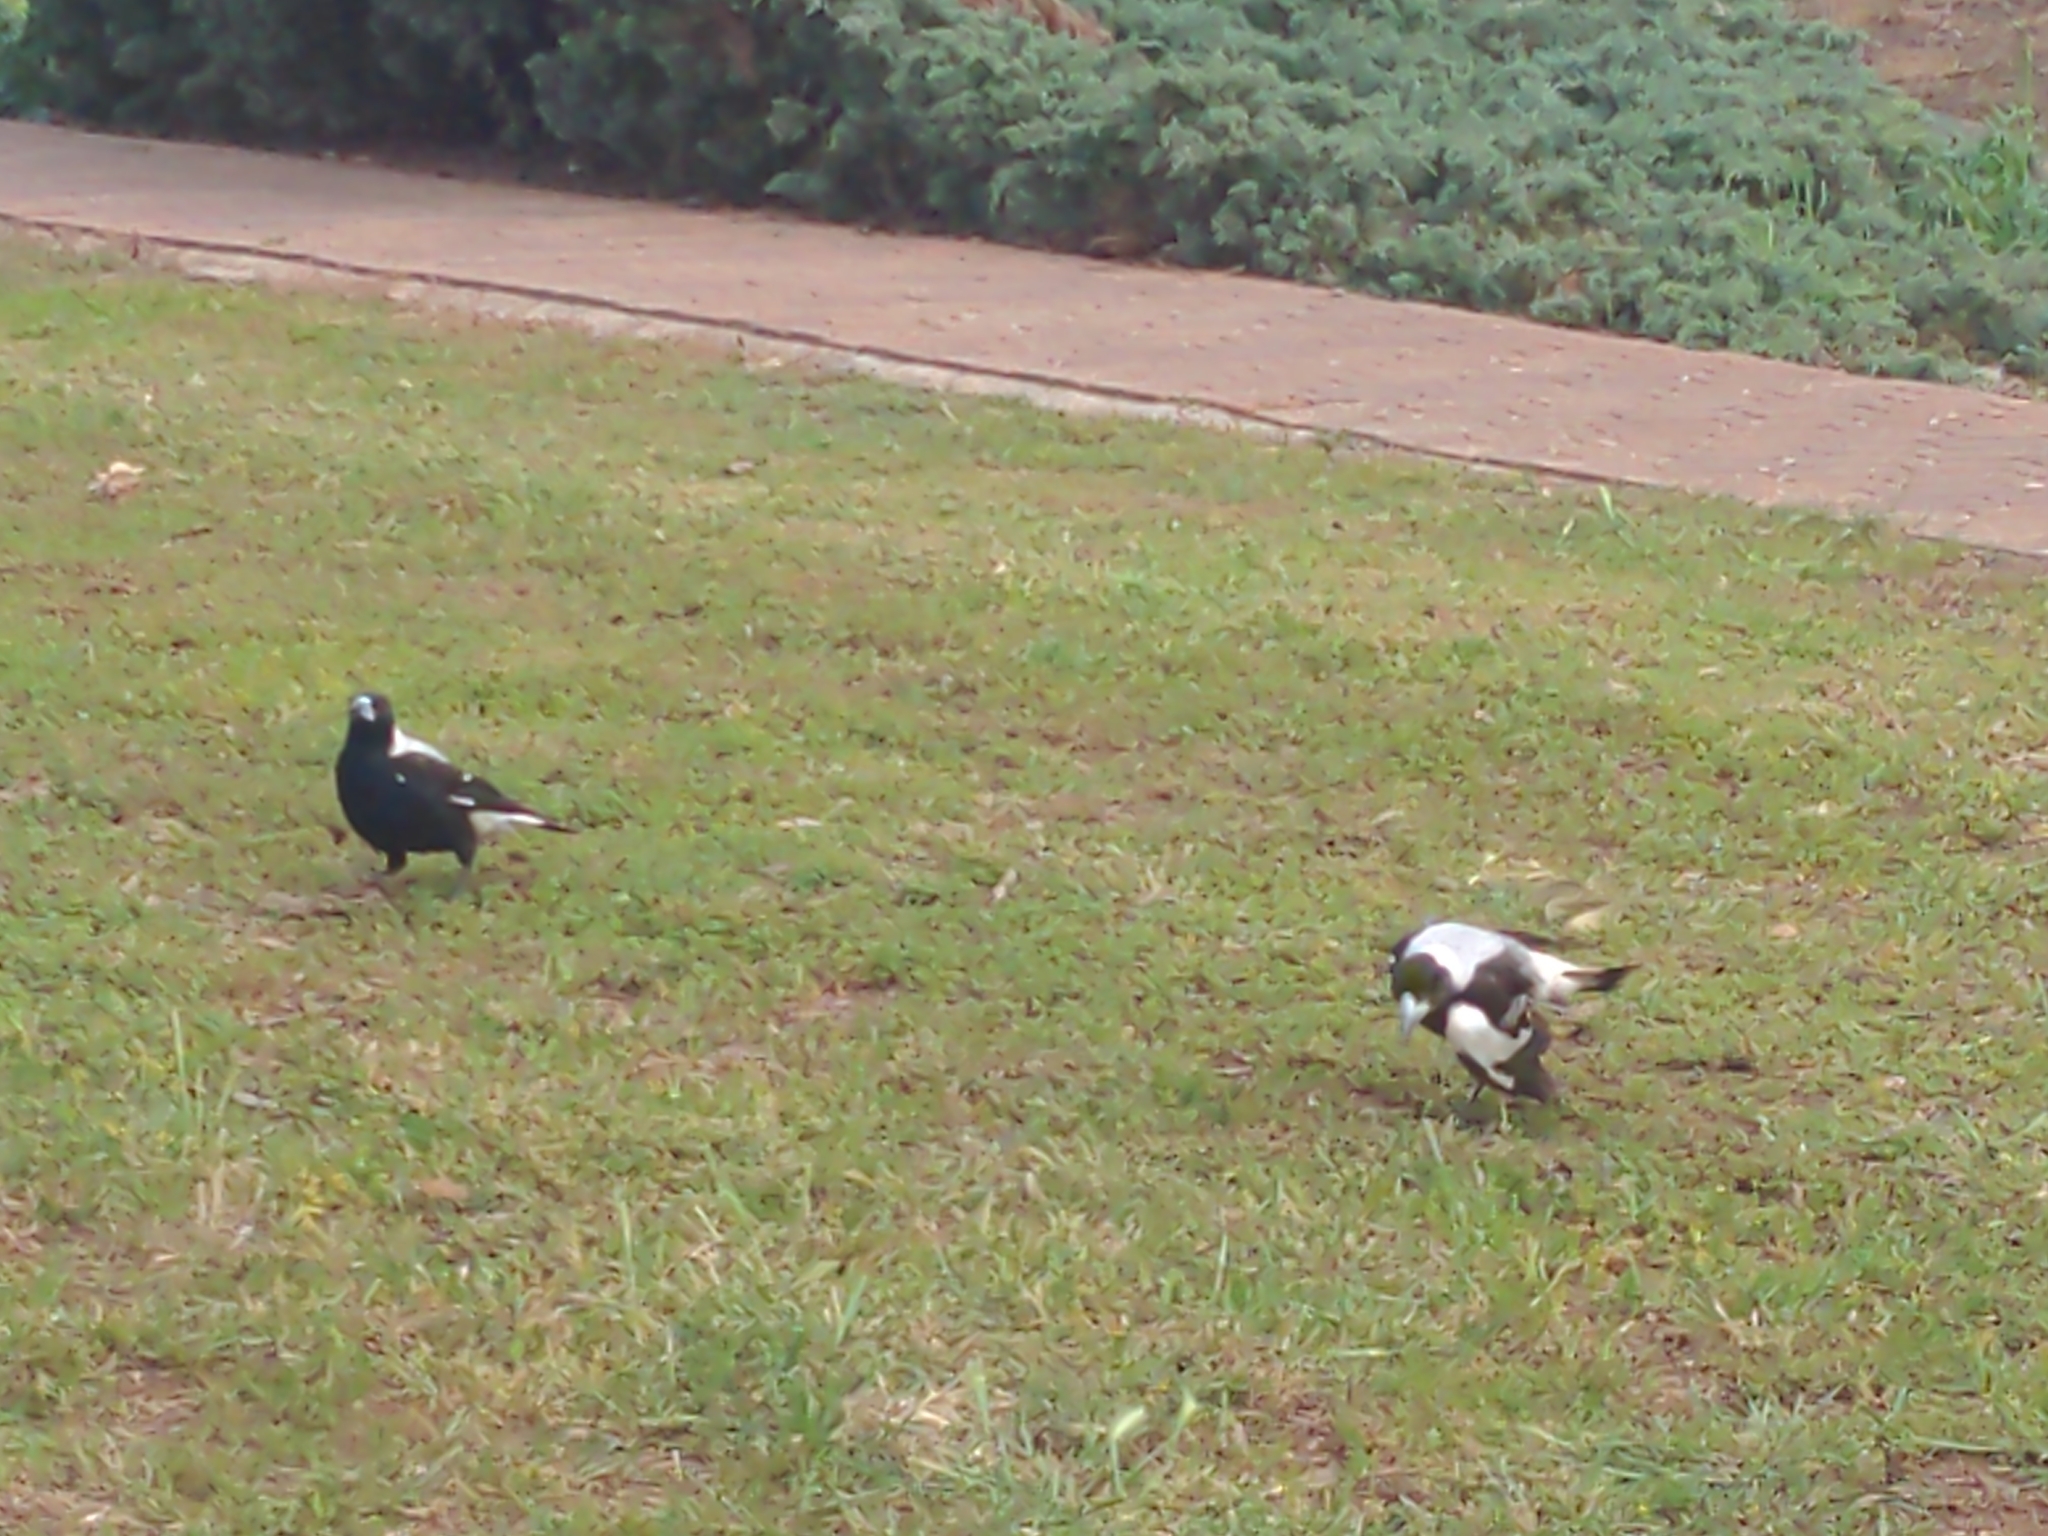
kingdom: Animalia
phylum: Chordata
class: Aves
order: Passeriformes
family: Cracticidae
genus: Gymnorhina
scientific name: Gymnorhina tibicen
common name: Australian magpie
